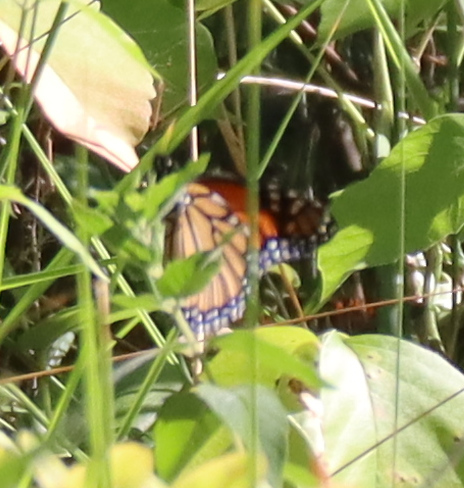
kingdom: Animalia
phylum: Arthropoda
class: Insecta
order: Lepidoptera
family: Nymphalidae
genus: Danaus
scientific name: Danaus plexippus
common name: Monarch
